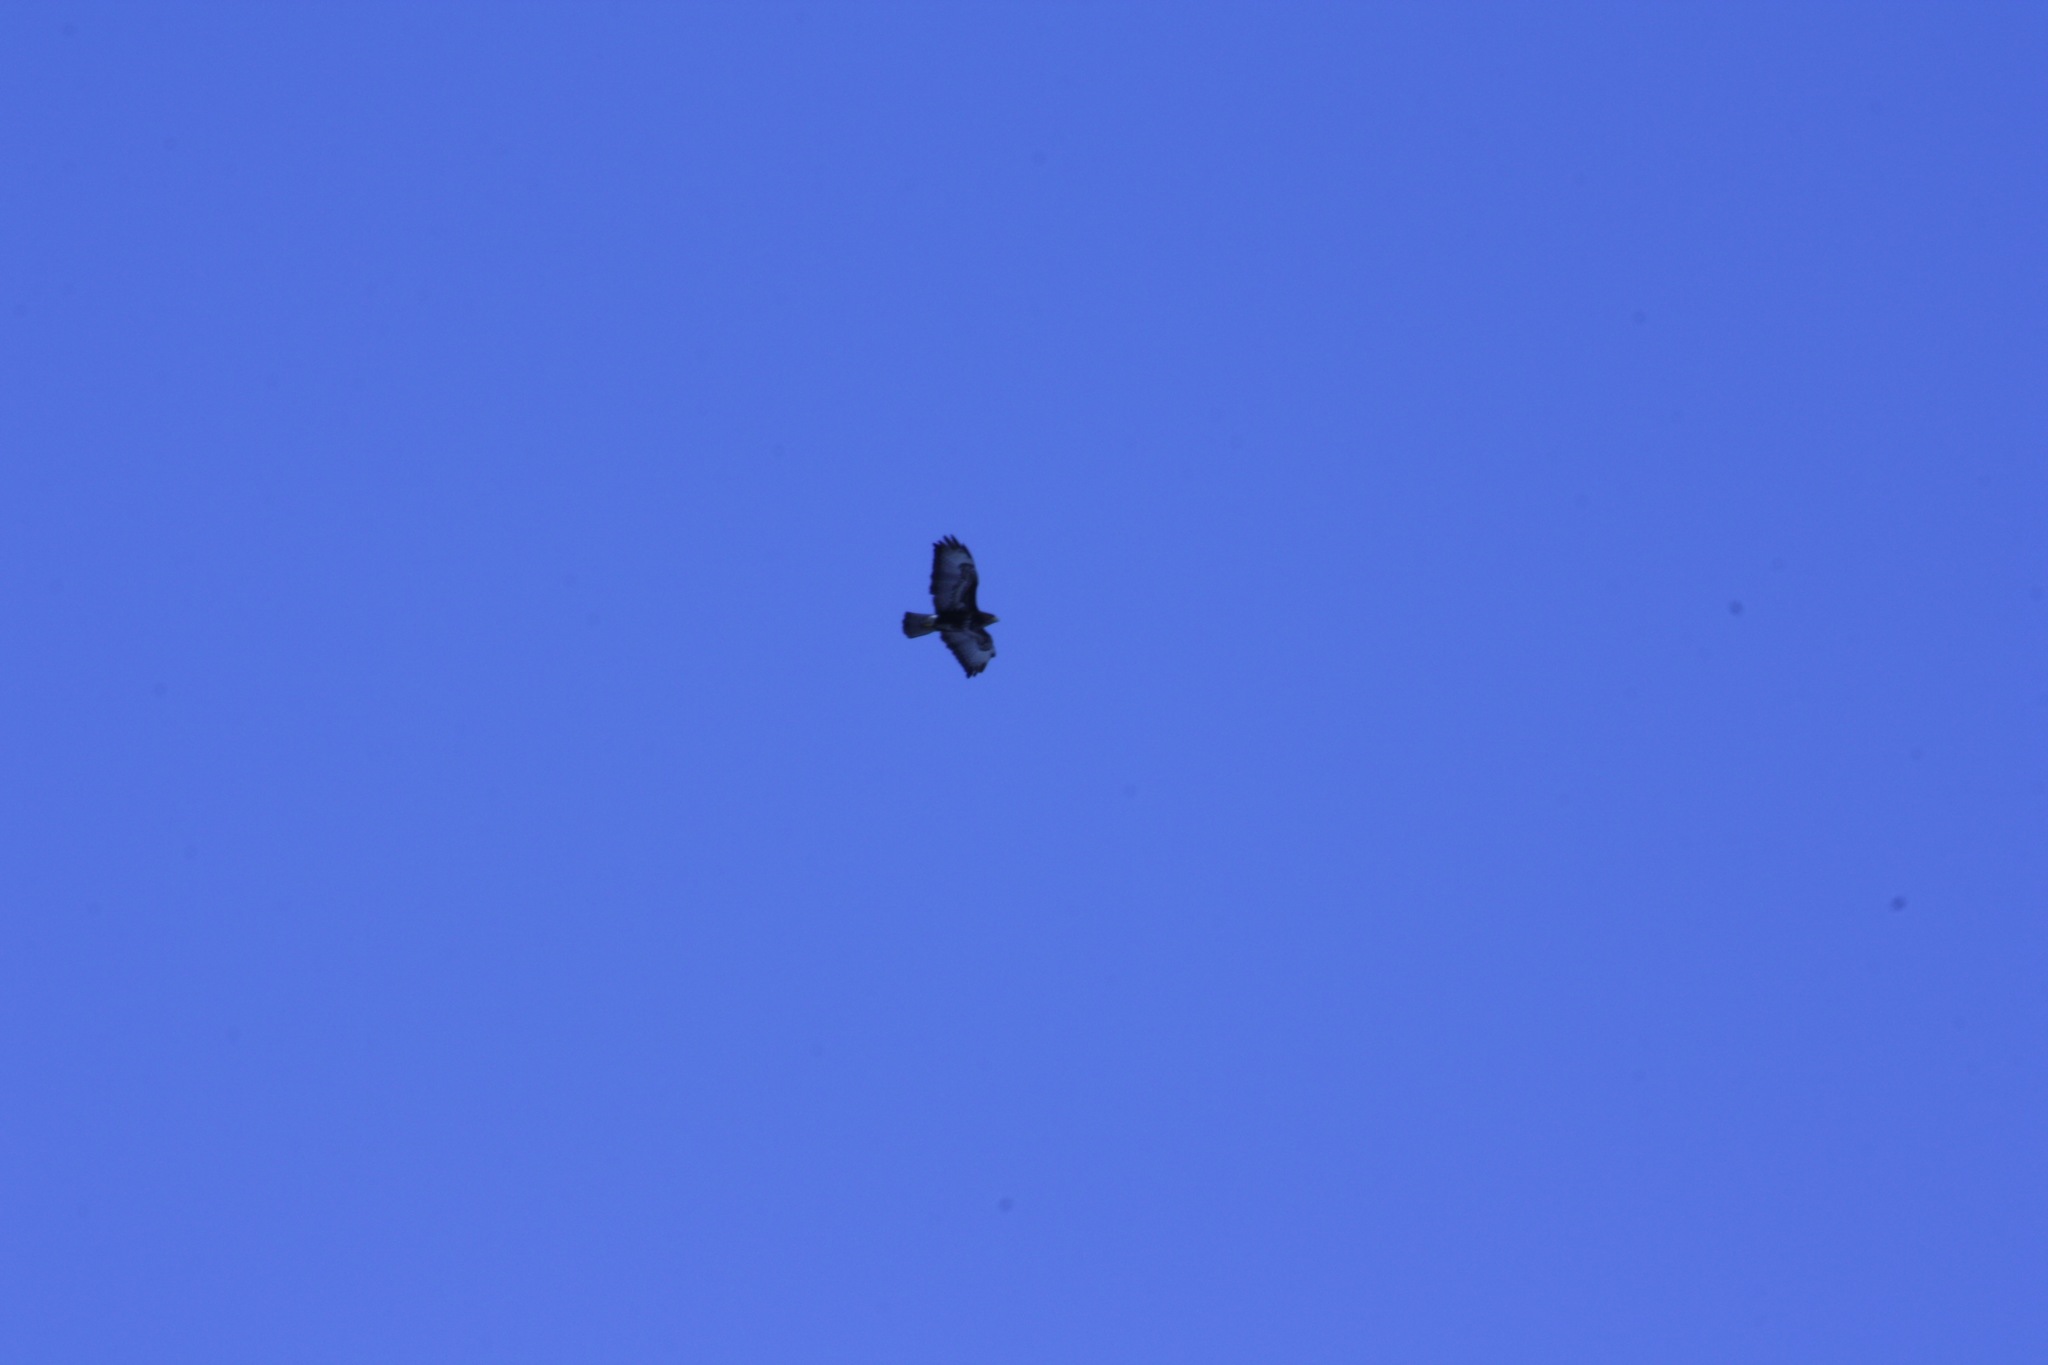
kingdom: Animalia
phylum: Chordata
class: Aves
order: Accipitriformes
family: Accipitridae
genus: Buteo
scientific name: Buteo buteo
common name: Common buzzard
